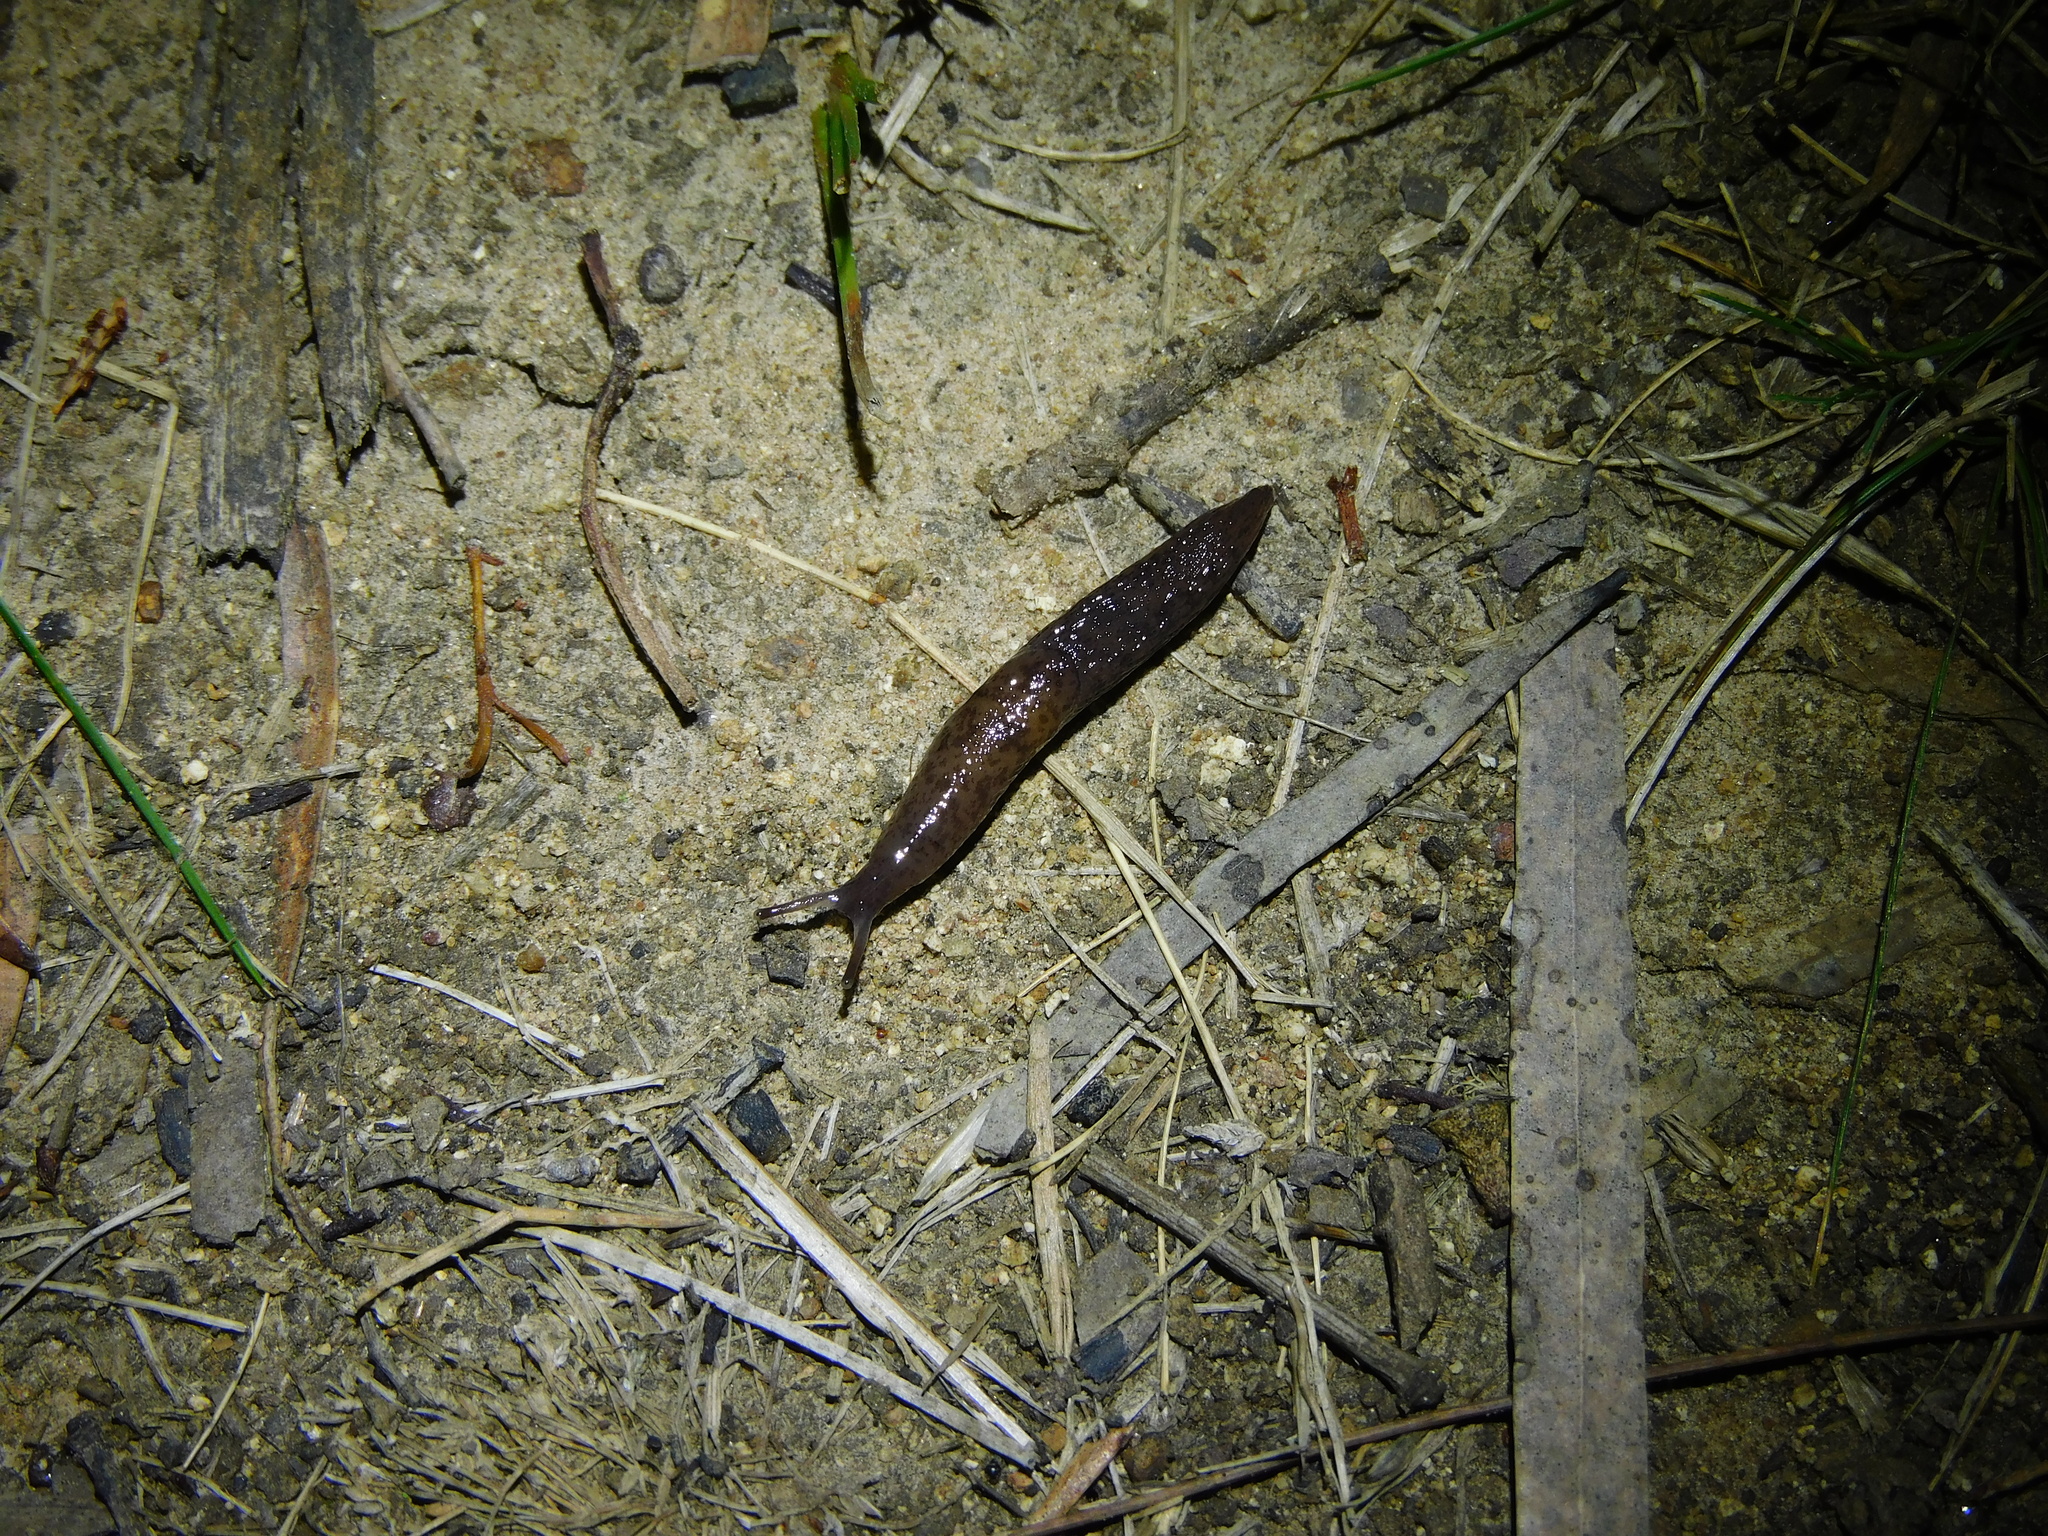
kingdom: Animalia
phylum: Mollusca
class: Gastropoda
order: Stylommatophora
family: Agriolimacidae
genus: Deroceras
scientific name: Deroceras invadens
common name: Caruana's slug
